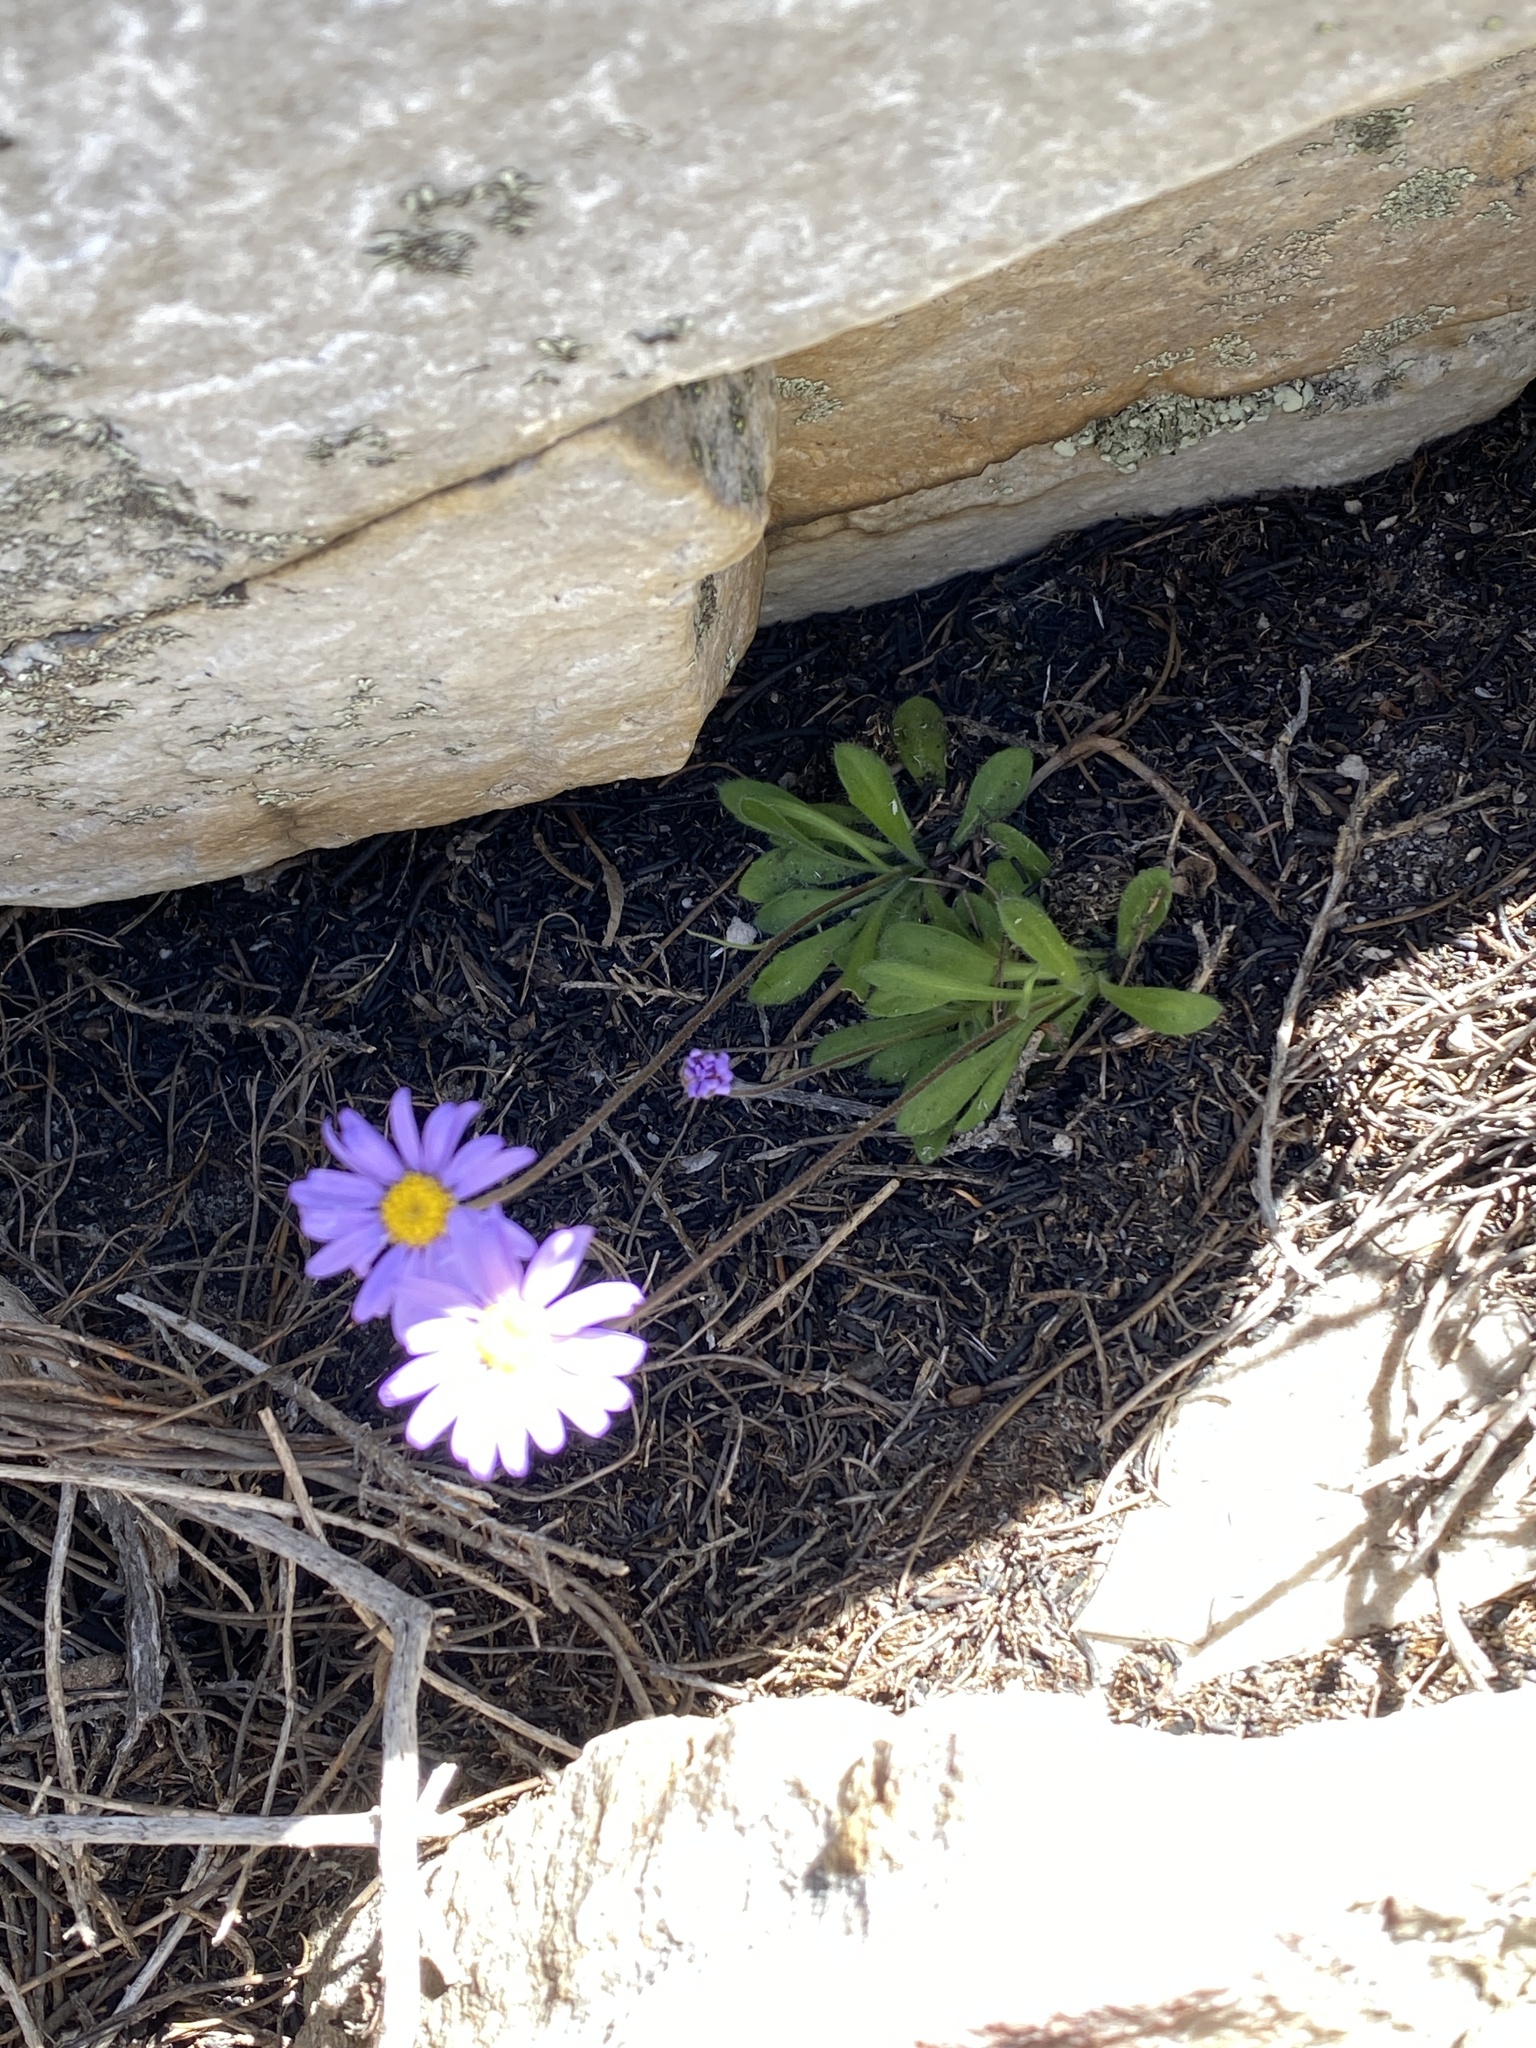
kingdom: Plantae
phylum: Tracheophyta
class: Magnoliopsida
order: Asterales
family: Asteraceae
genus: Felicia
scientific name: Felicia bellidioides
